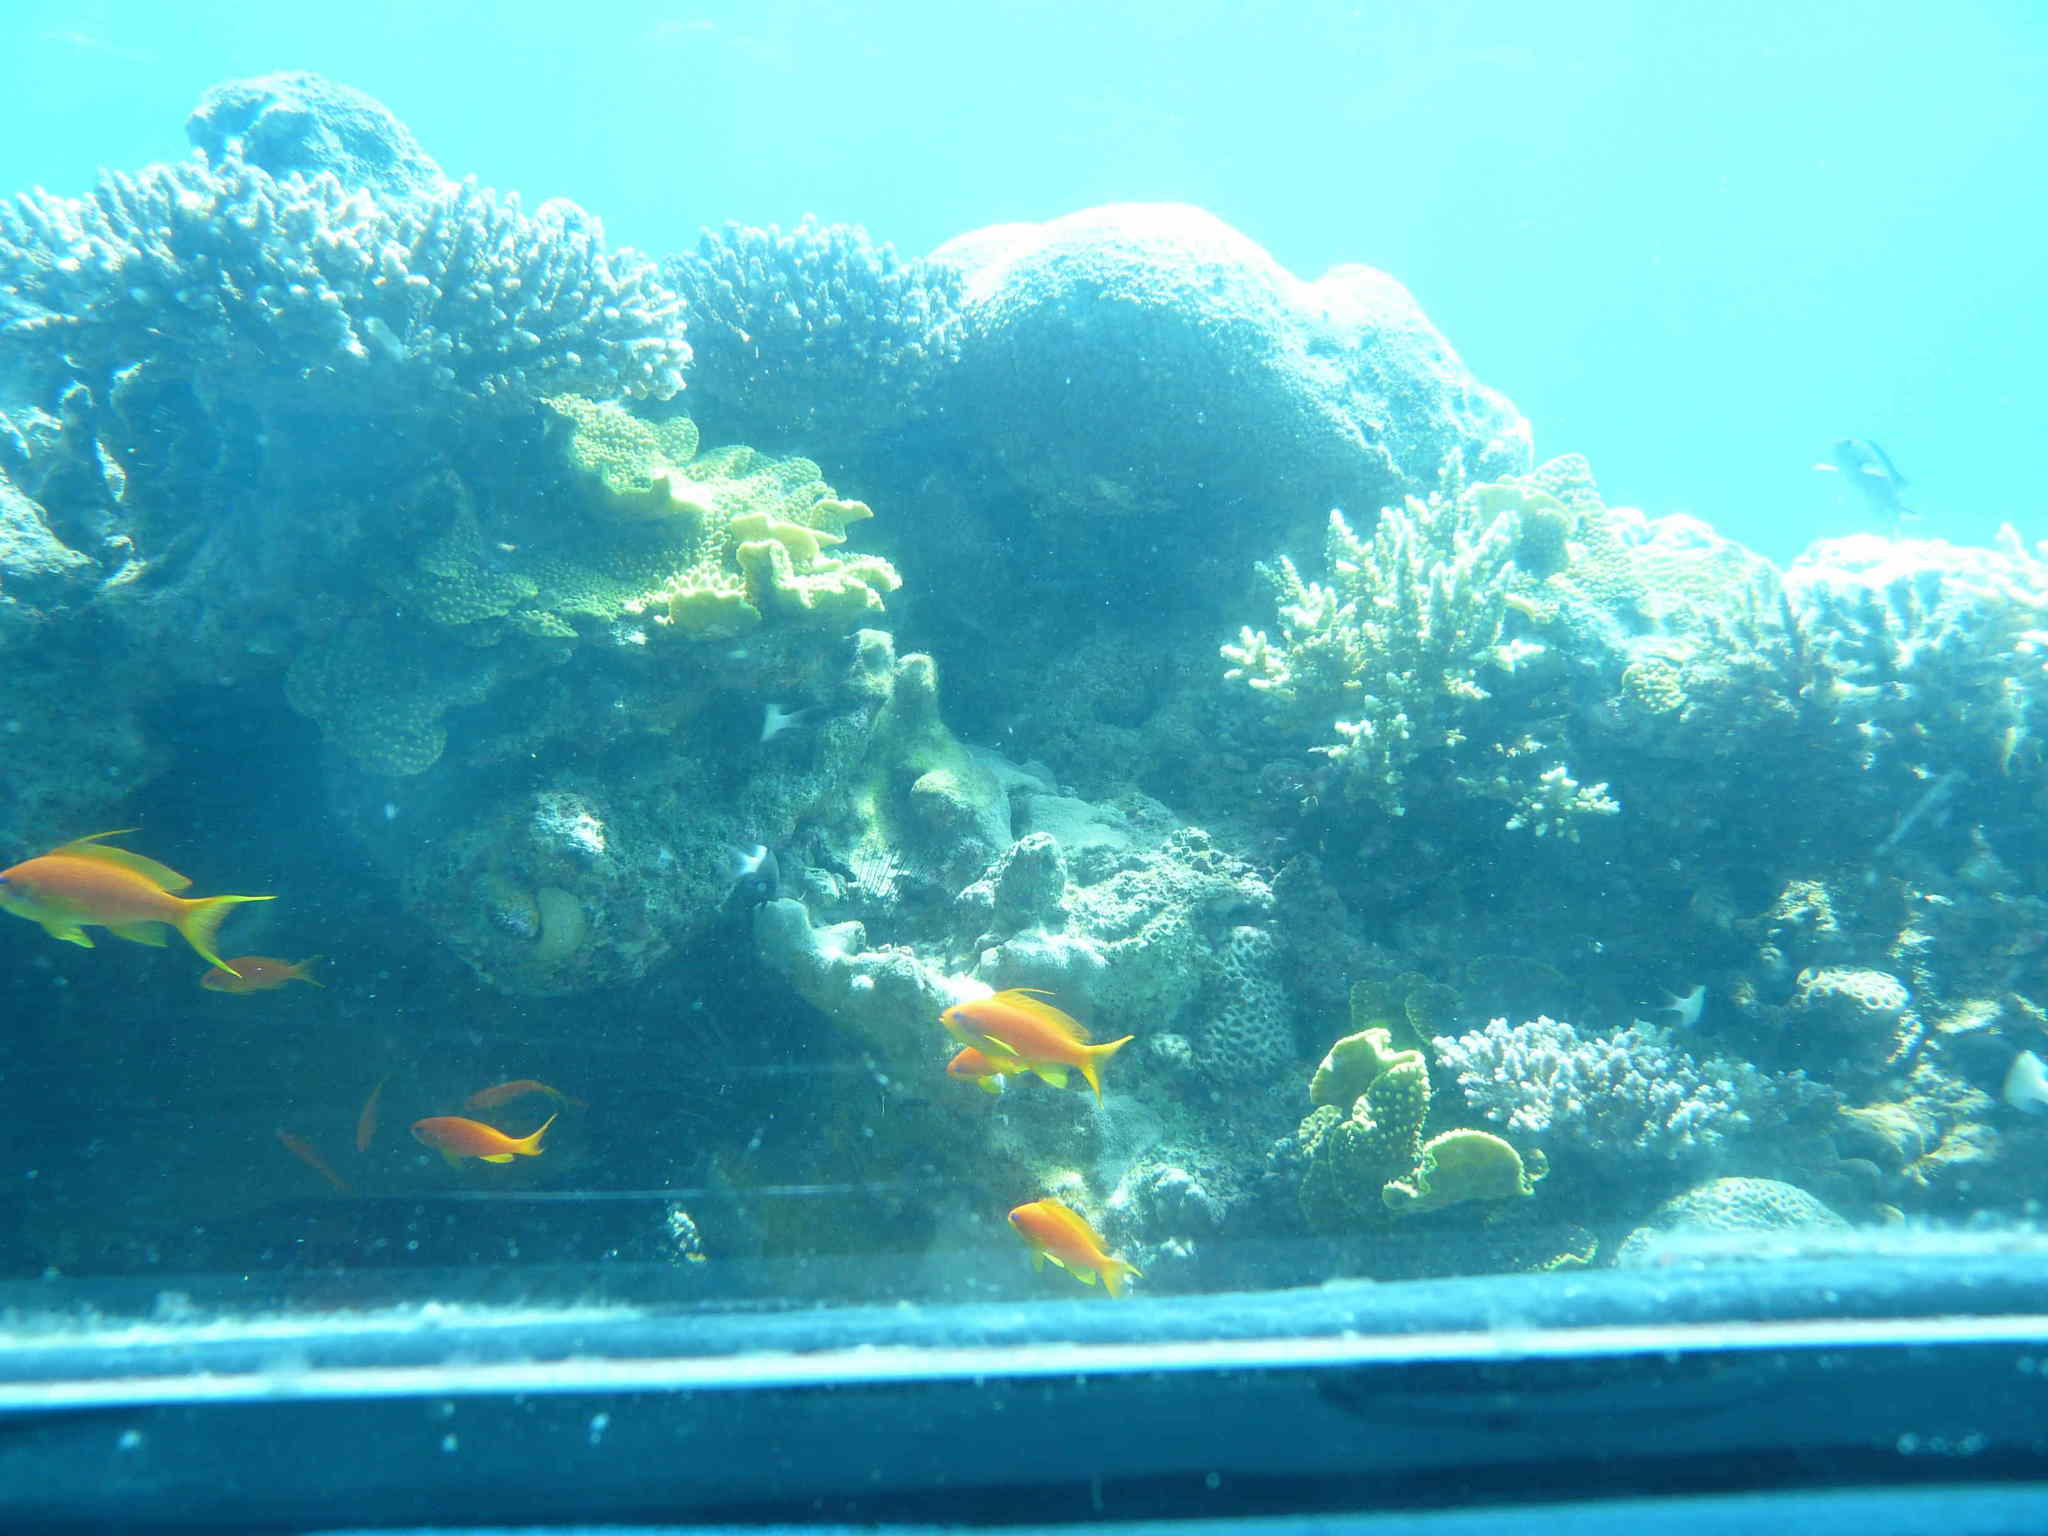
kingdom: Animalia
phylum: Chordata
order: Perciformes
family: Serranidae
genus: Pseudanthias
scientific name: Pseudanthias squamipinnis
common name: Scalefin anthias
